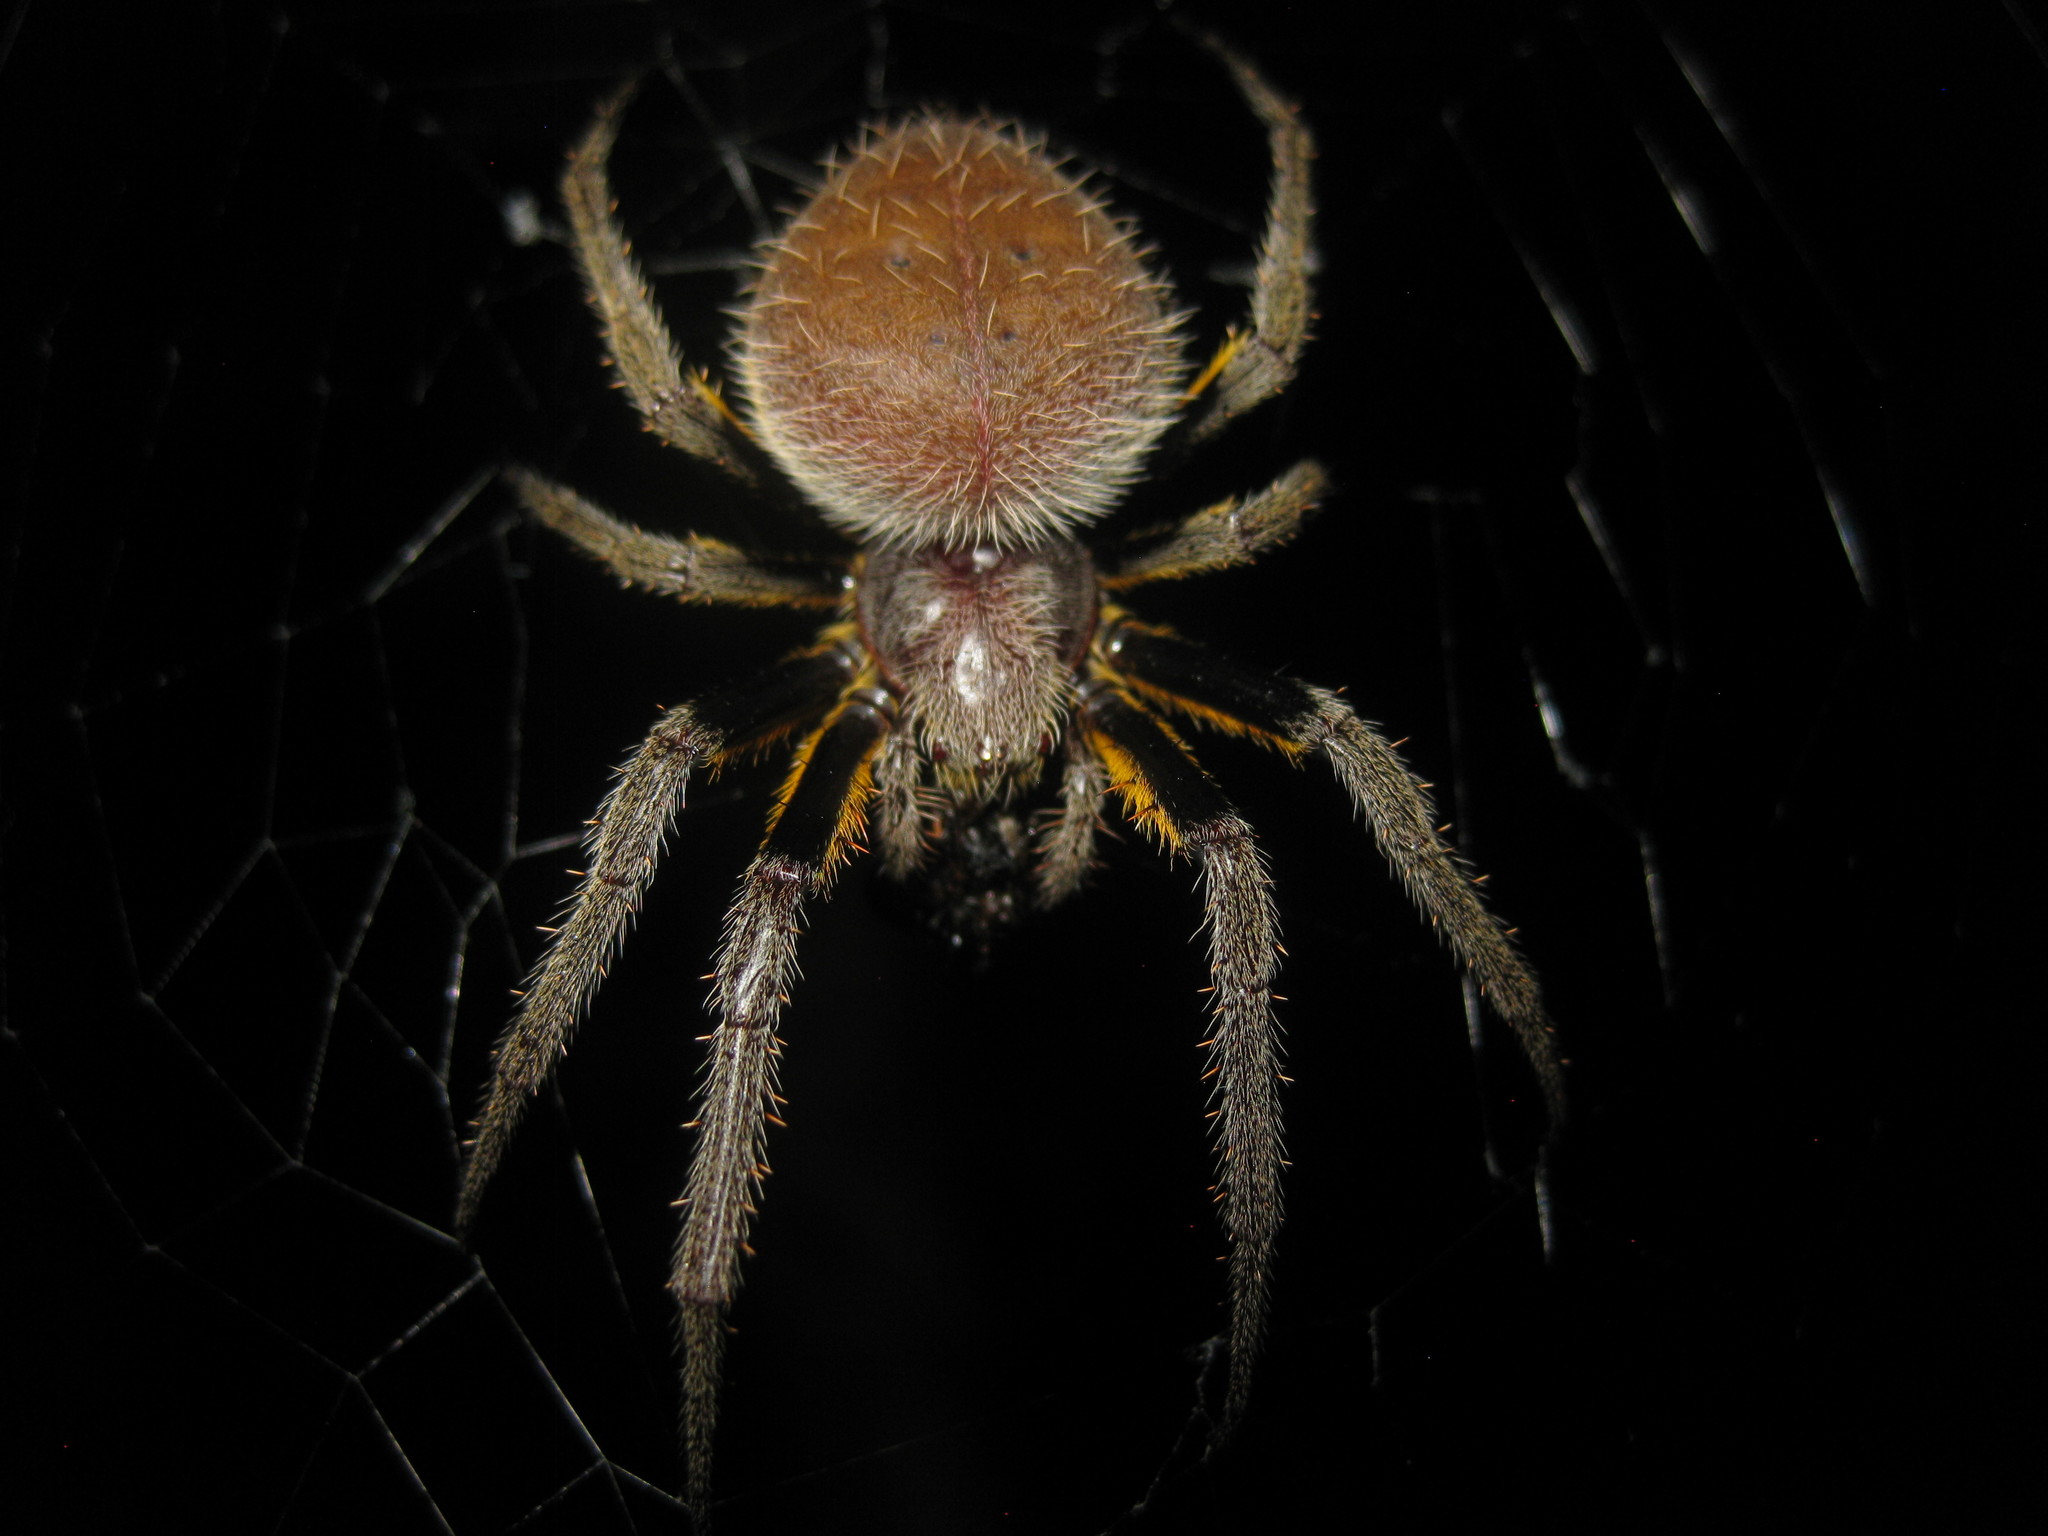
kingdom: Animalia
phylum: Arthropoda
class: Arachnida
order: Araneae
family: Araneidae
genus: Eriophora
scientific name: Eriophora fuliginea
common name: Orb weavers
